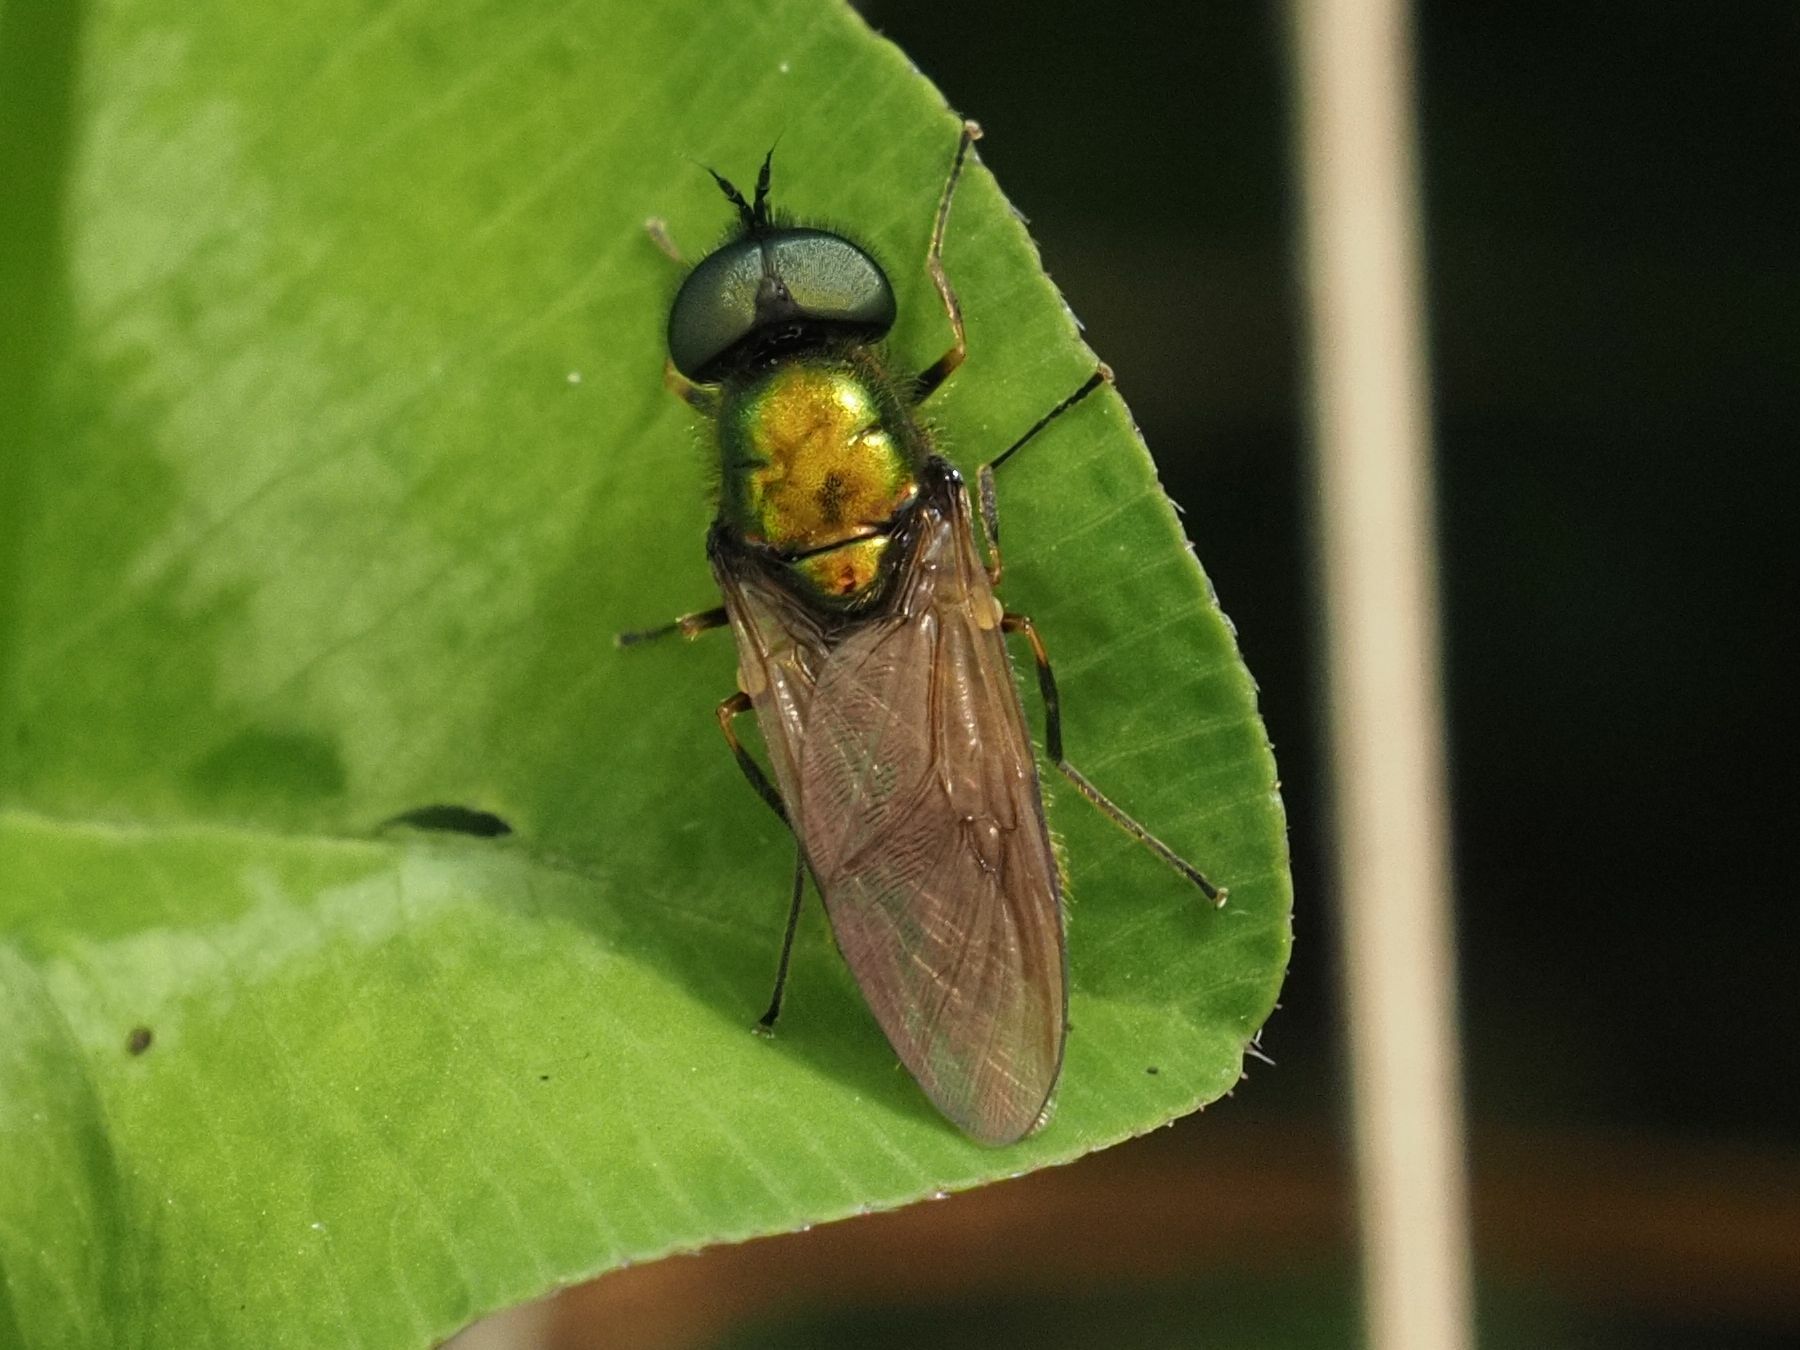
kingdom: Animalia
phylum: Arthropoda
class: Insecta
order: Diptera
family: Stratiomyidae
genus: Chloromyia
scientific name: Chloromyia formosa
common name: Soldier fly
